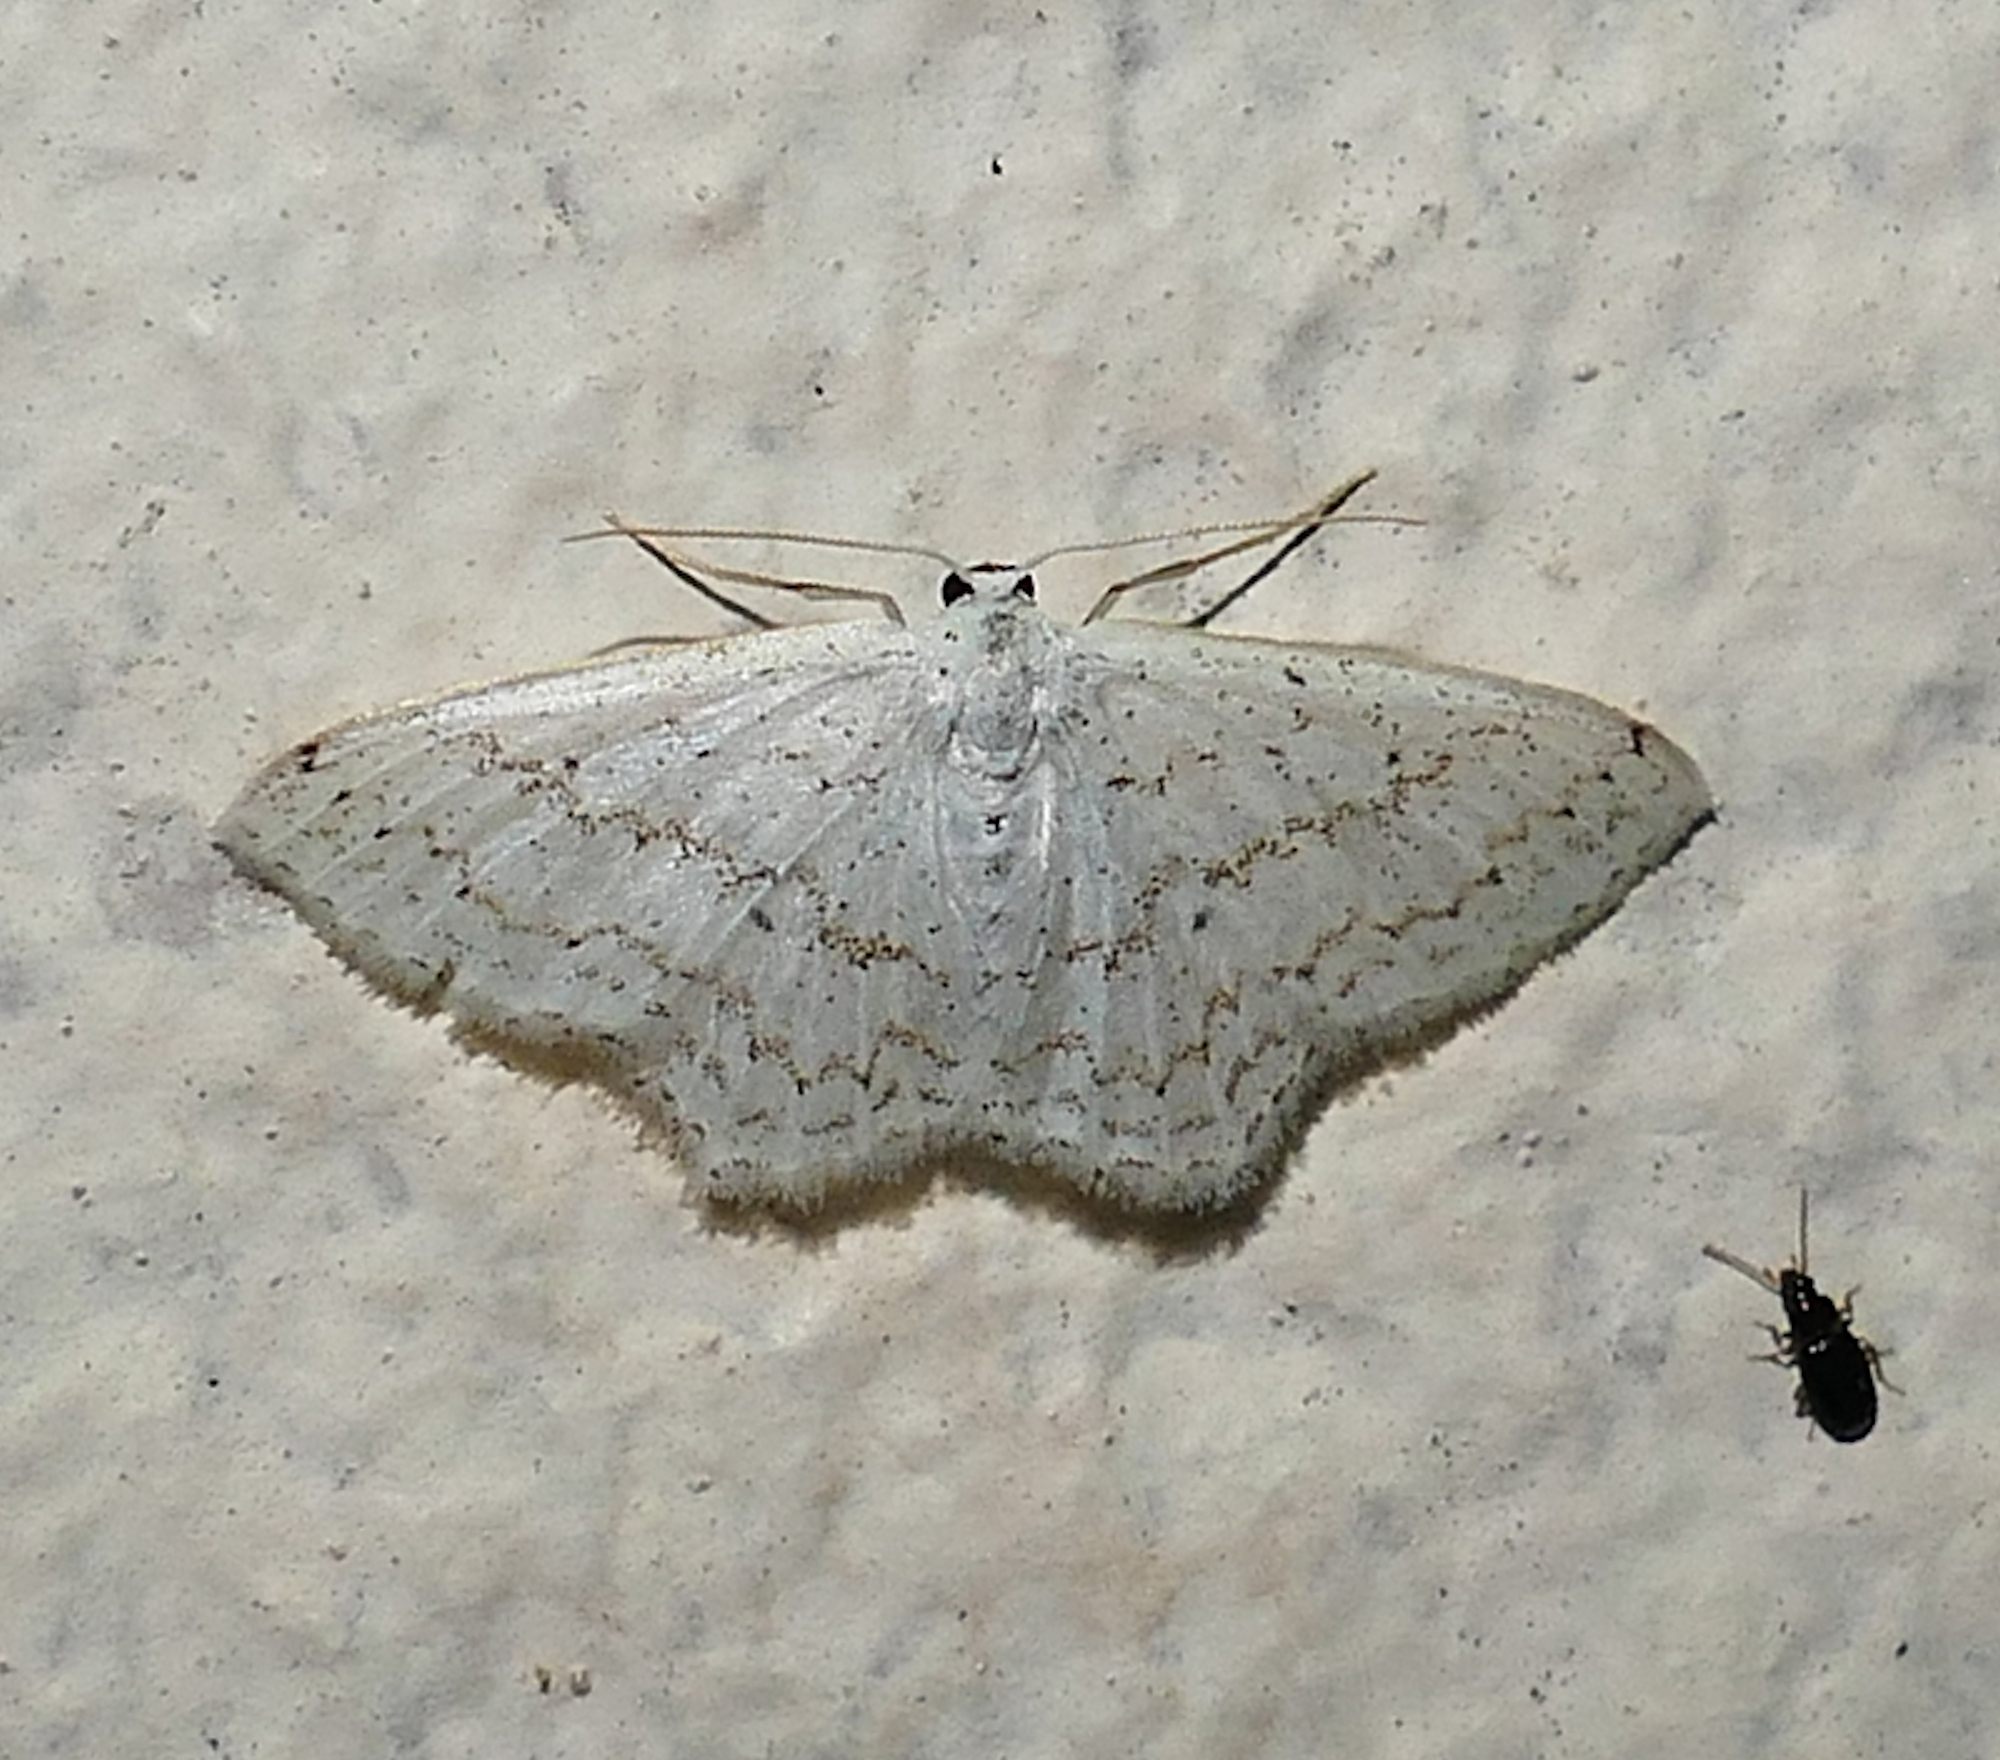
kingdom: Animalia
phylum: Arthropoda
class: Insecta
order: Lepidoptera
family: Geometridae
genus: Idaea
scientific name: Idaea tacturata
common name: Dot-lined wave
